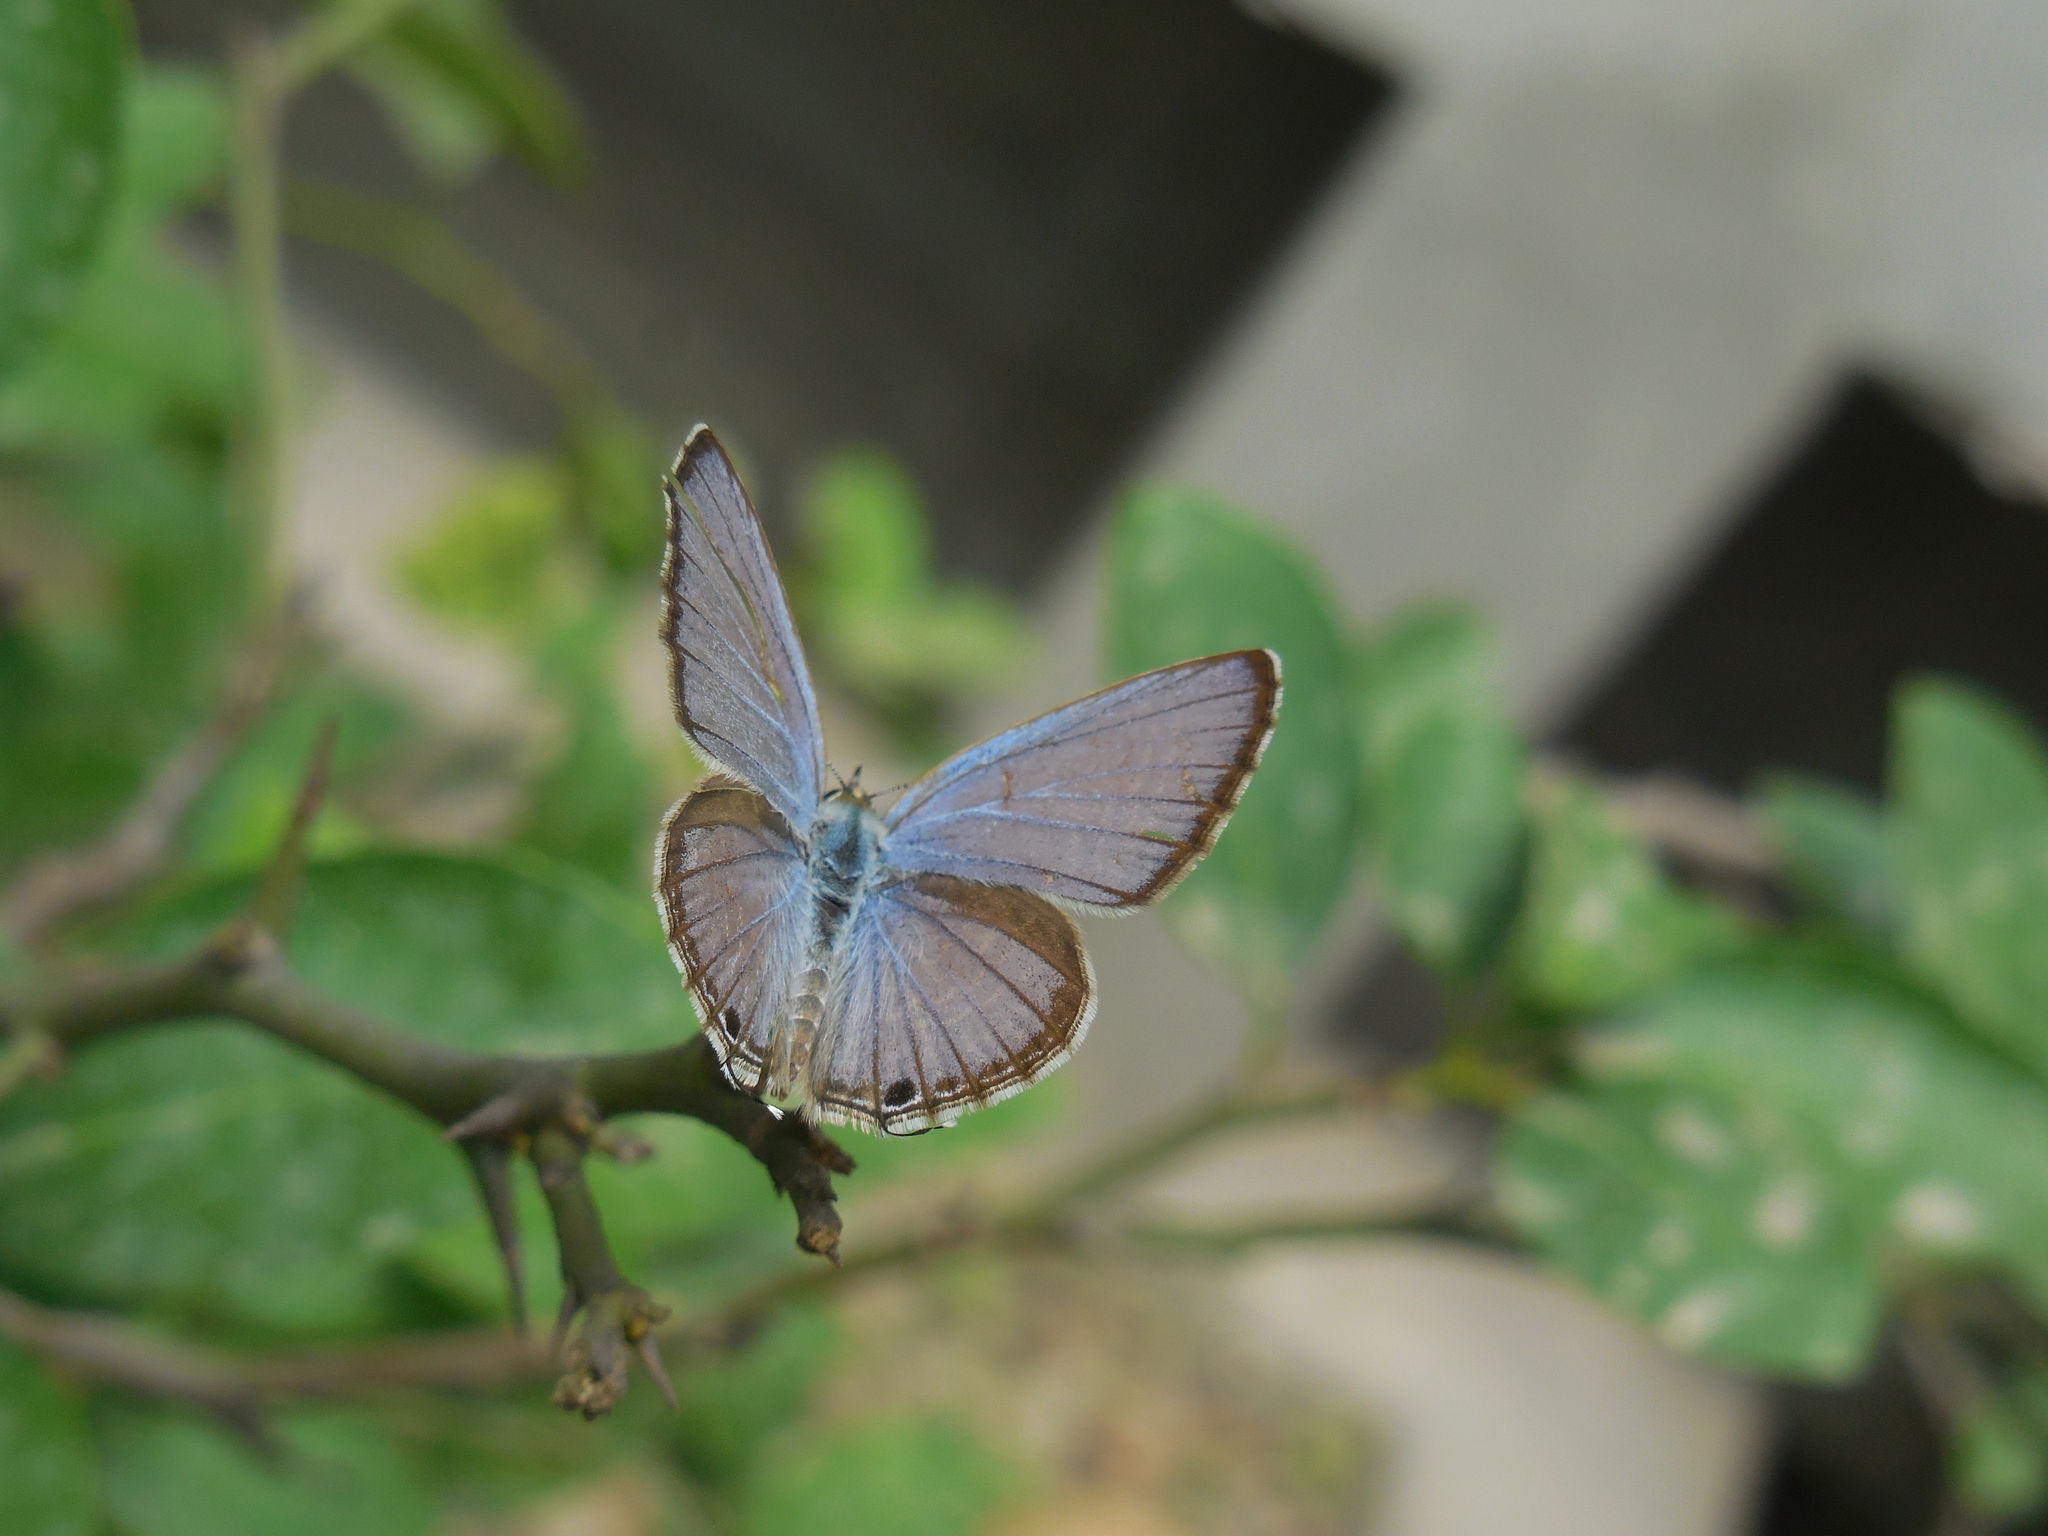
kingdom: Animalia
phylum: Arthropoda
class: Insecta
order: Lepidoptera
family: Lycaenidae
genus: Luthrodes
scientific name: Luthrodes pandava
